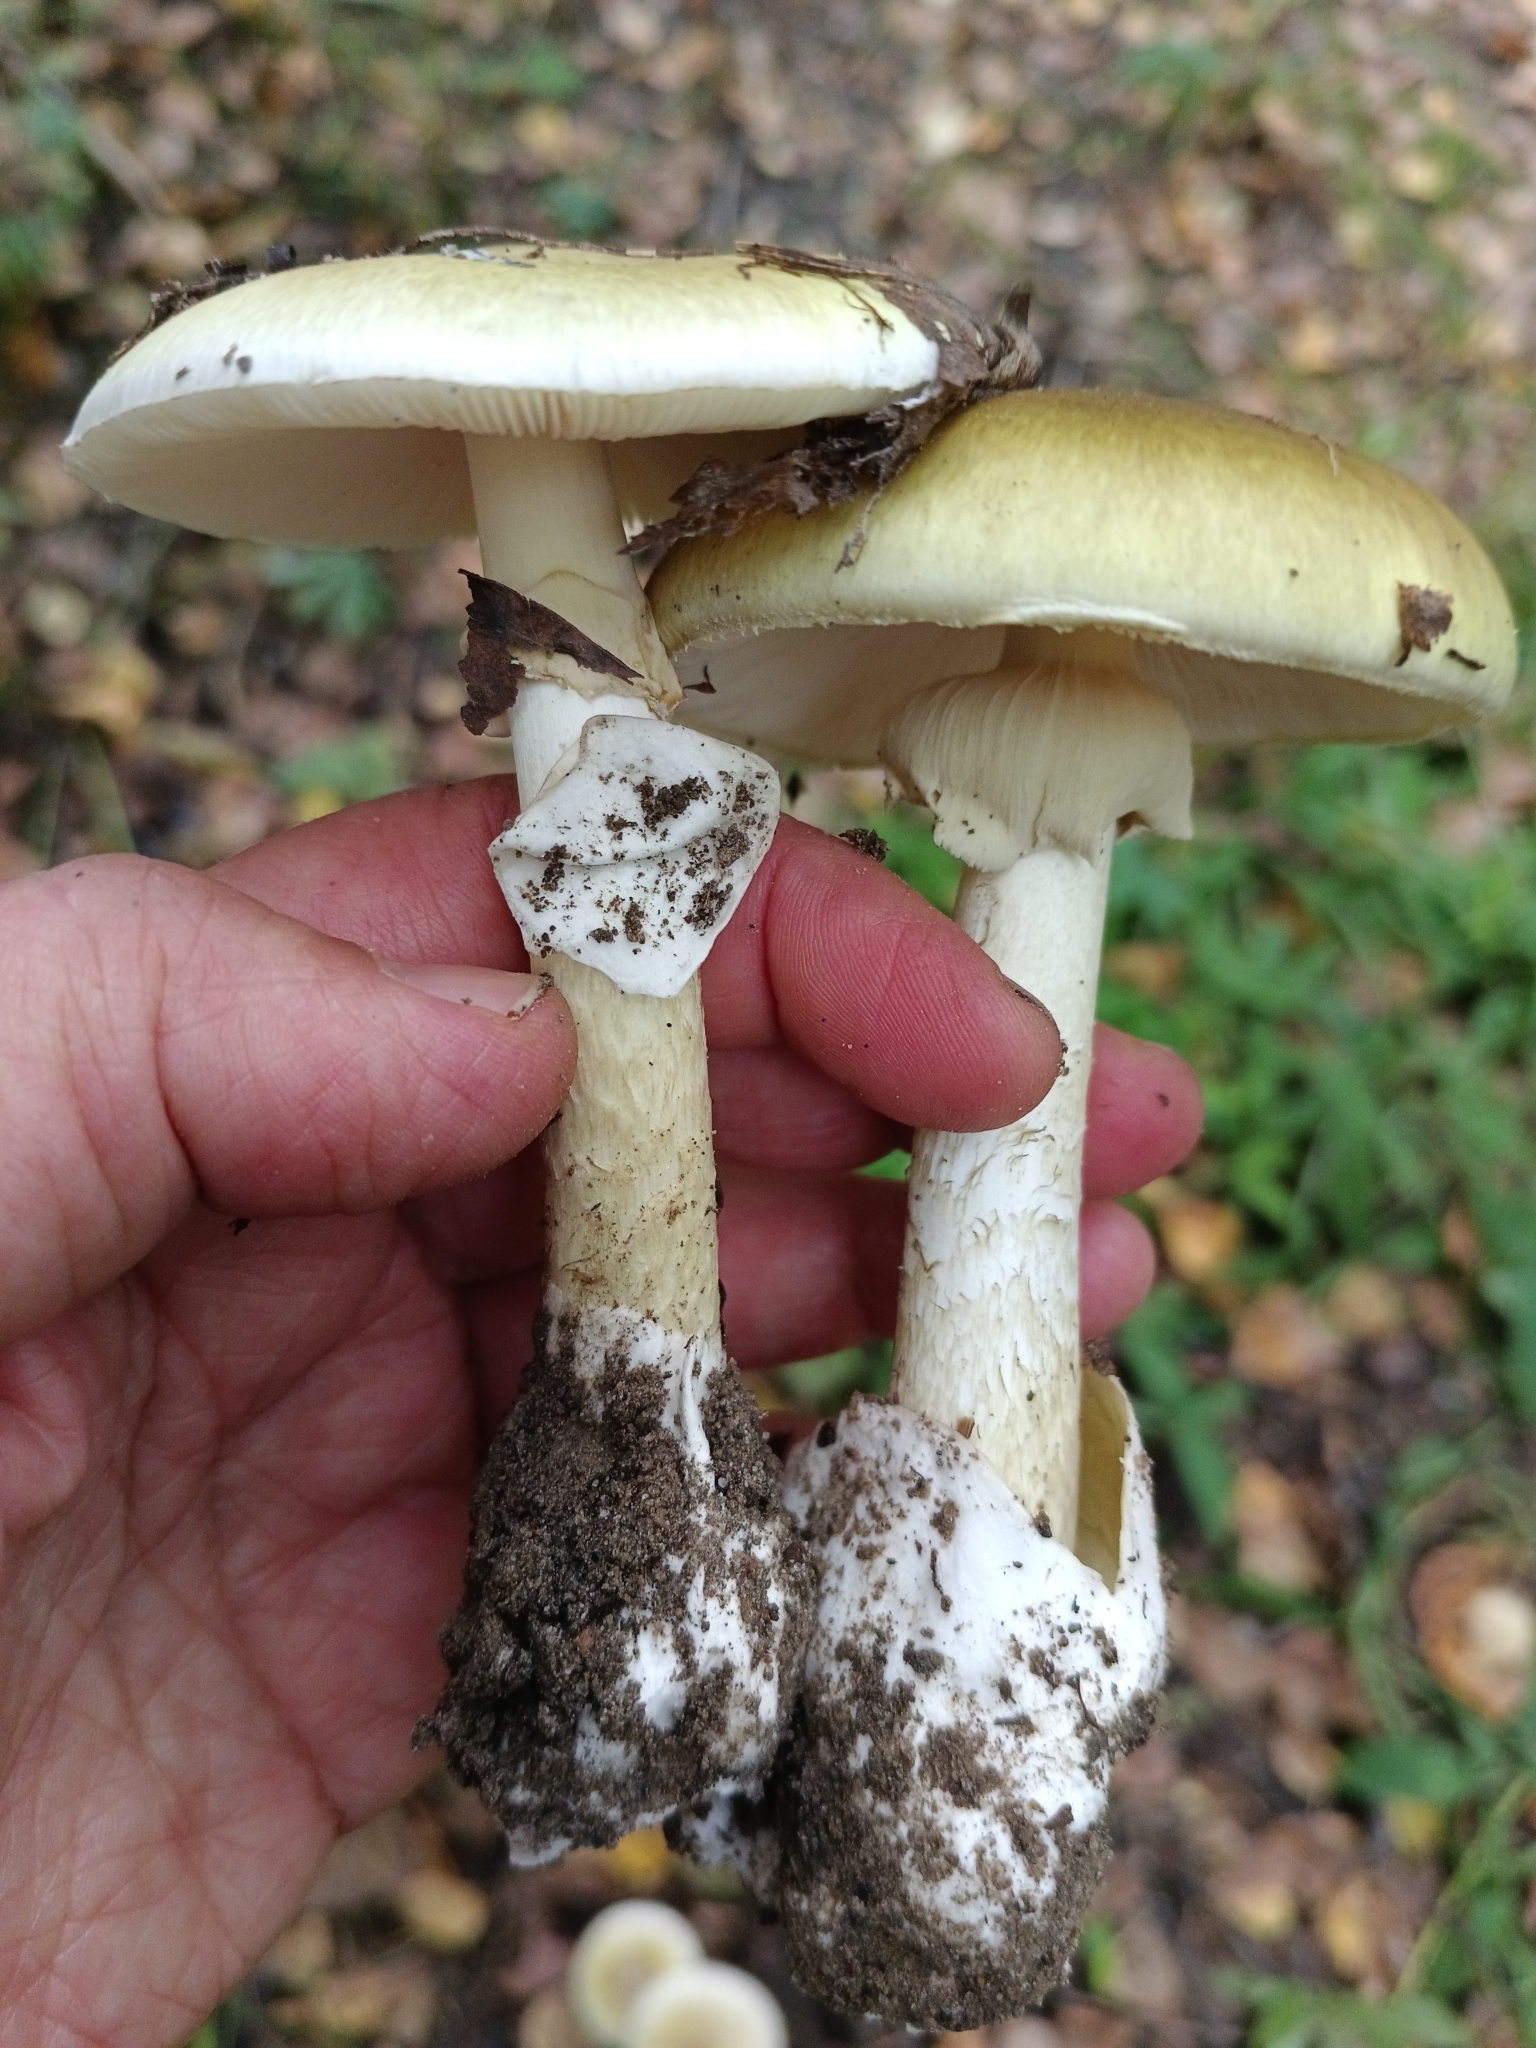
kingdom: Fungi
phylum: Basidiomycota
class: Agaricomycetes
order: Agaricales
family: Amanitaceae
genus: Amanita
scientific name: Amanita phalloides
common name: Death cap
